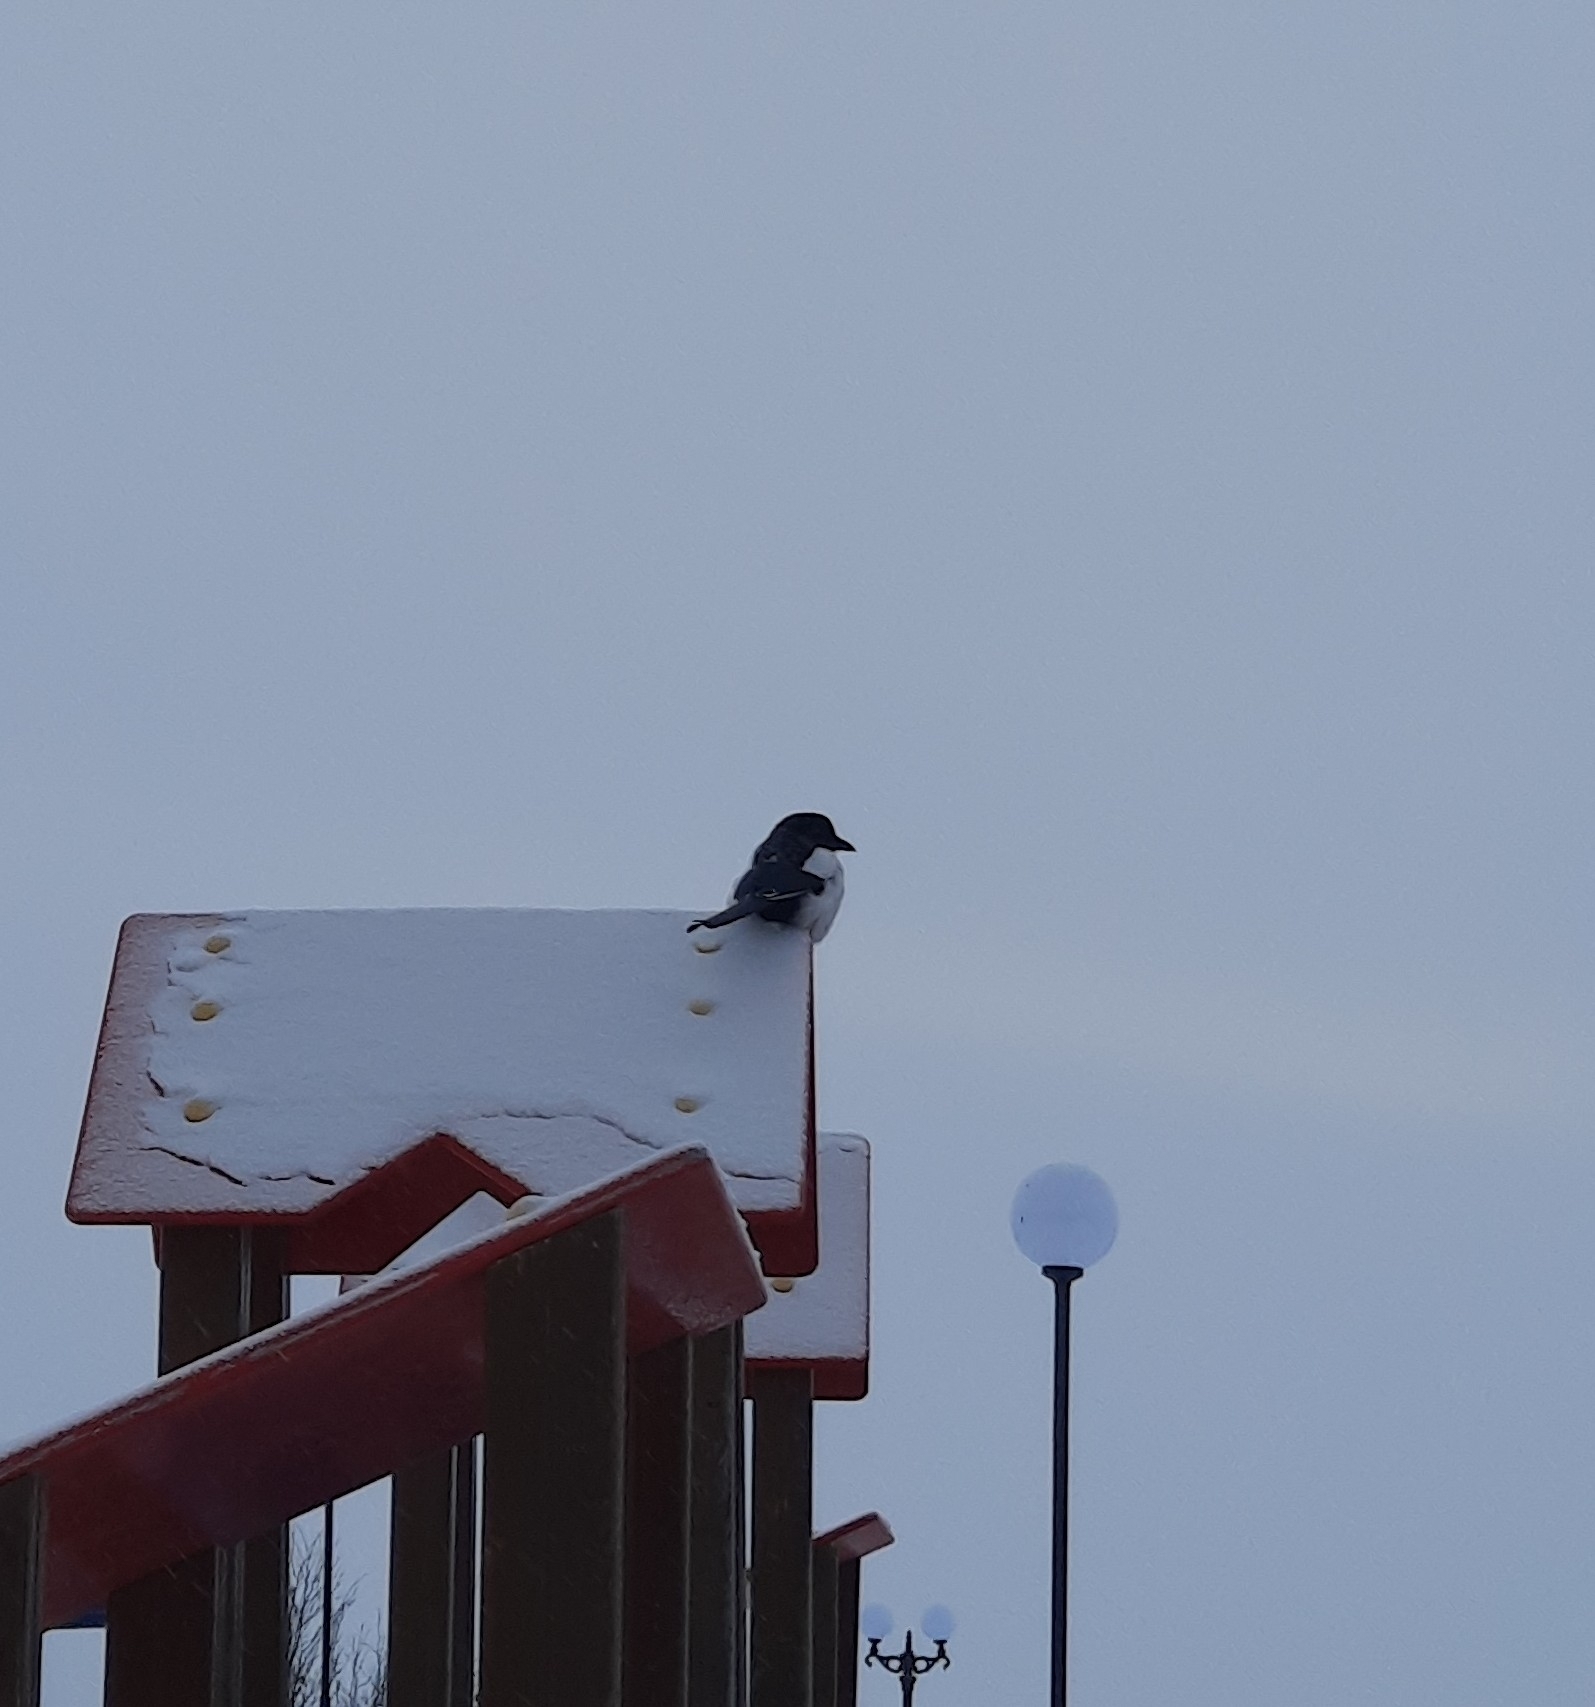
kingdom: Animalia
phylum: Chordata
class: Aves
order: Passeriformes
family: Corvidae
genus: Pica
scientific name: Pica pica
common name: Eurasian magpie
